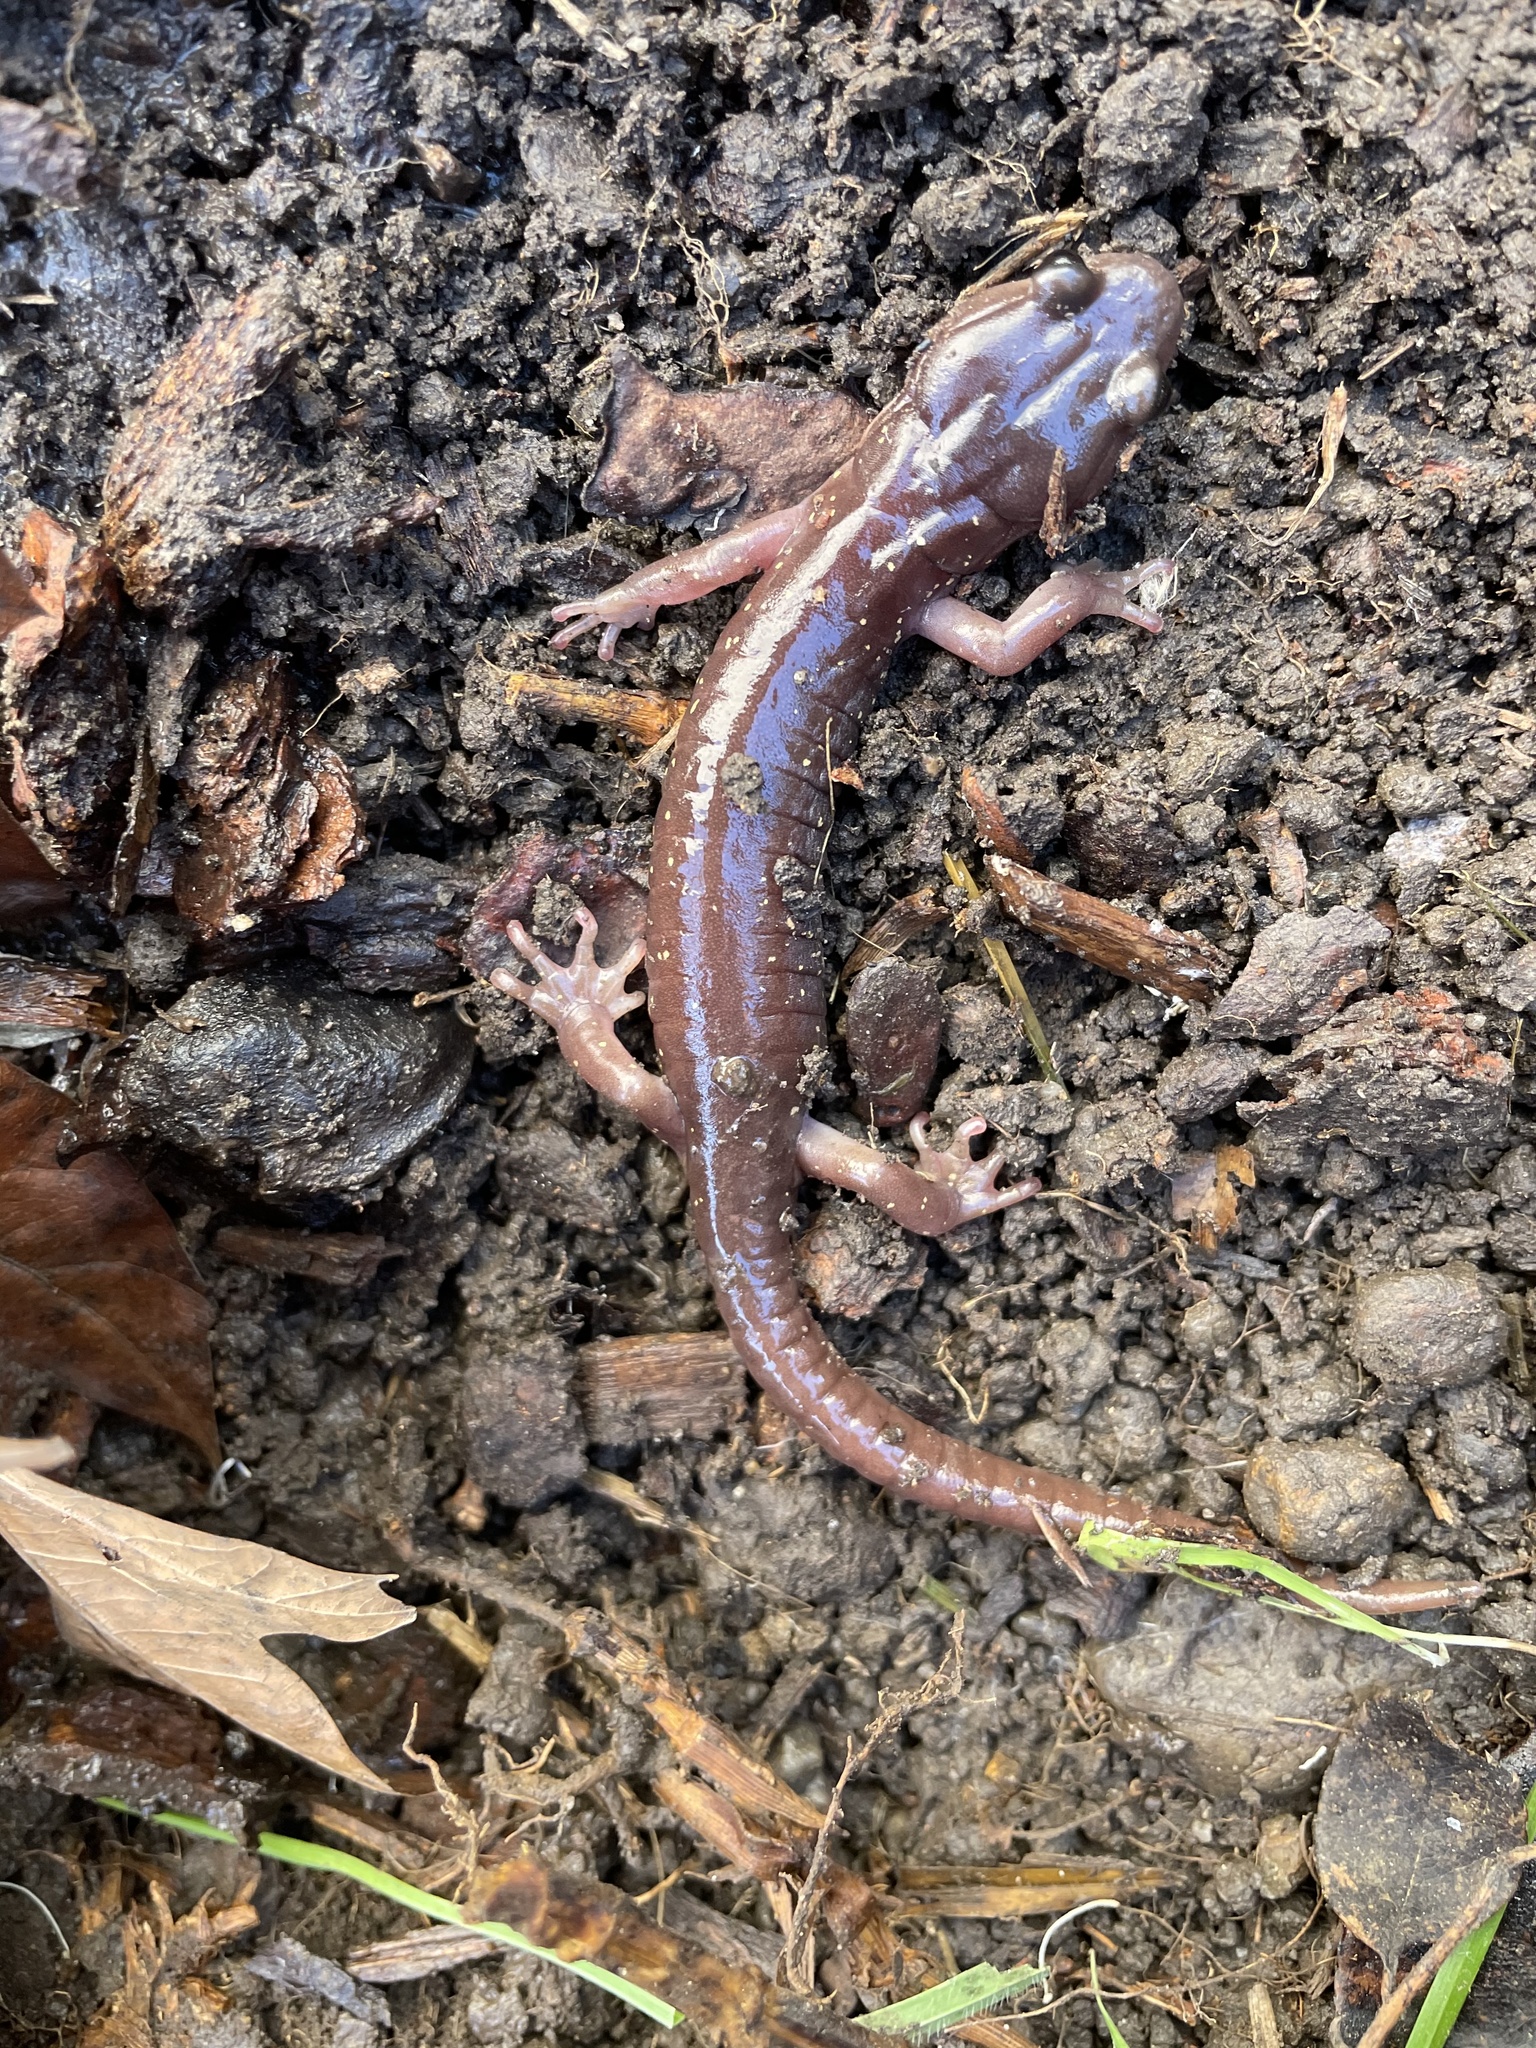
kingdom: Animalia
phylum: Chordata
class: Amphibia
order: Caudata
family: Plethodontidae
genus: Aneides
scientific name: Aneides lugubris
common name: Arboreal salamander
